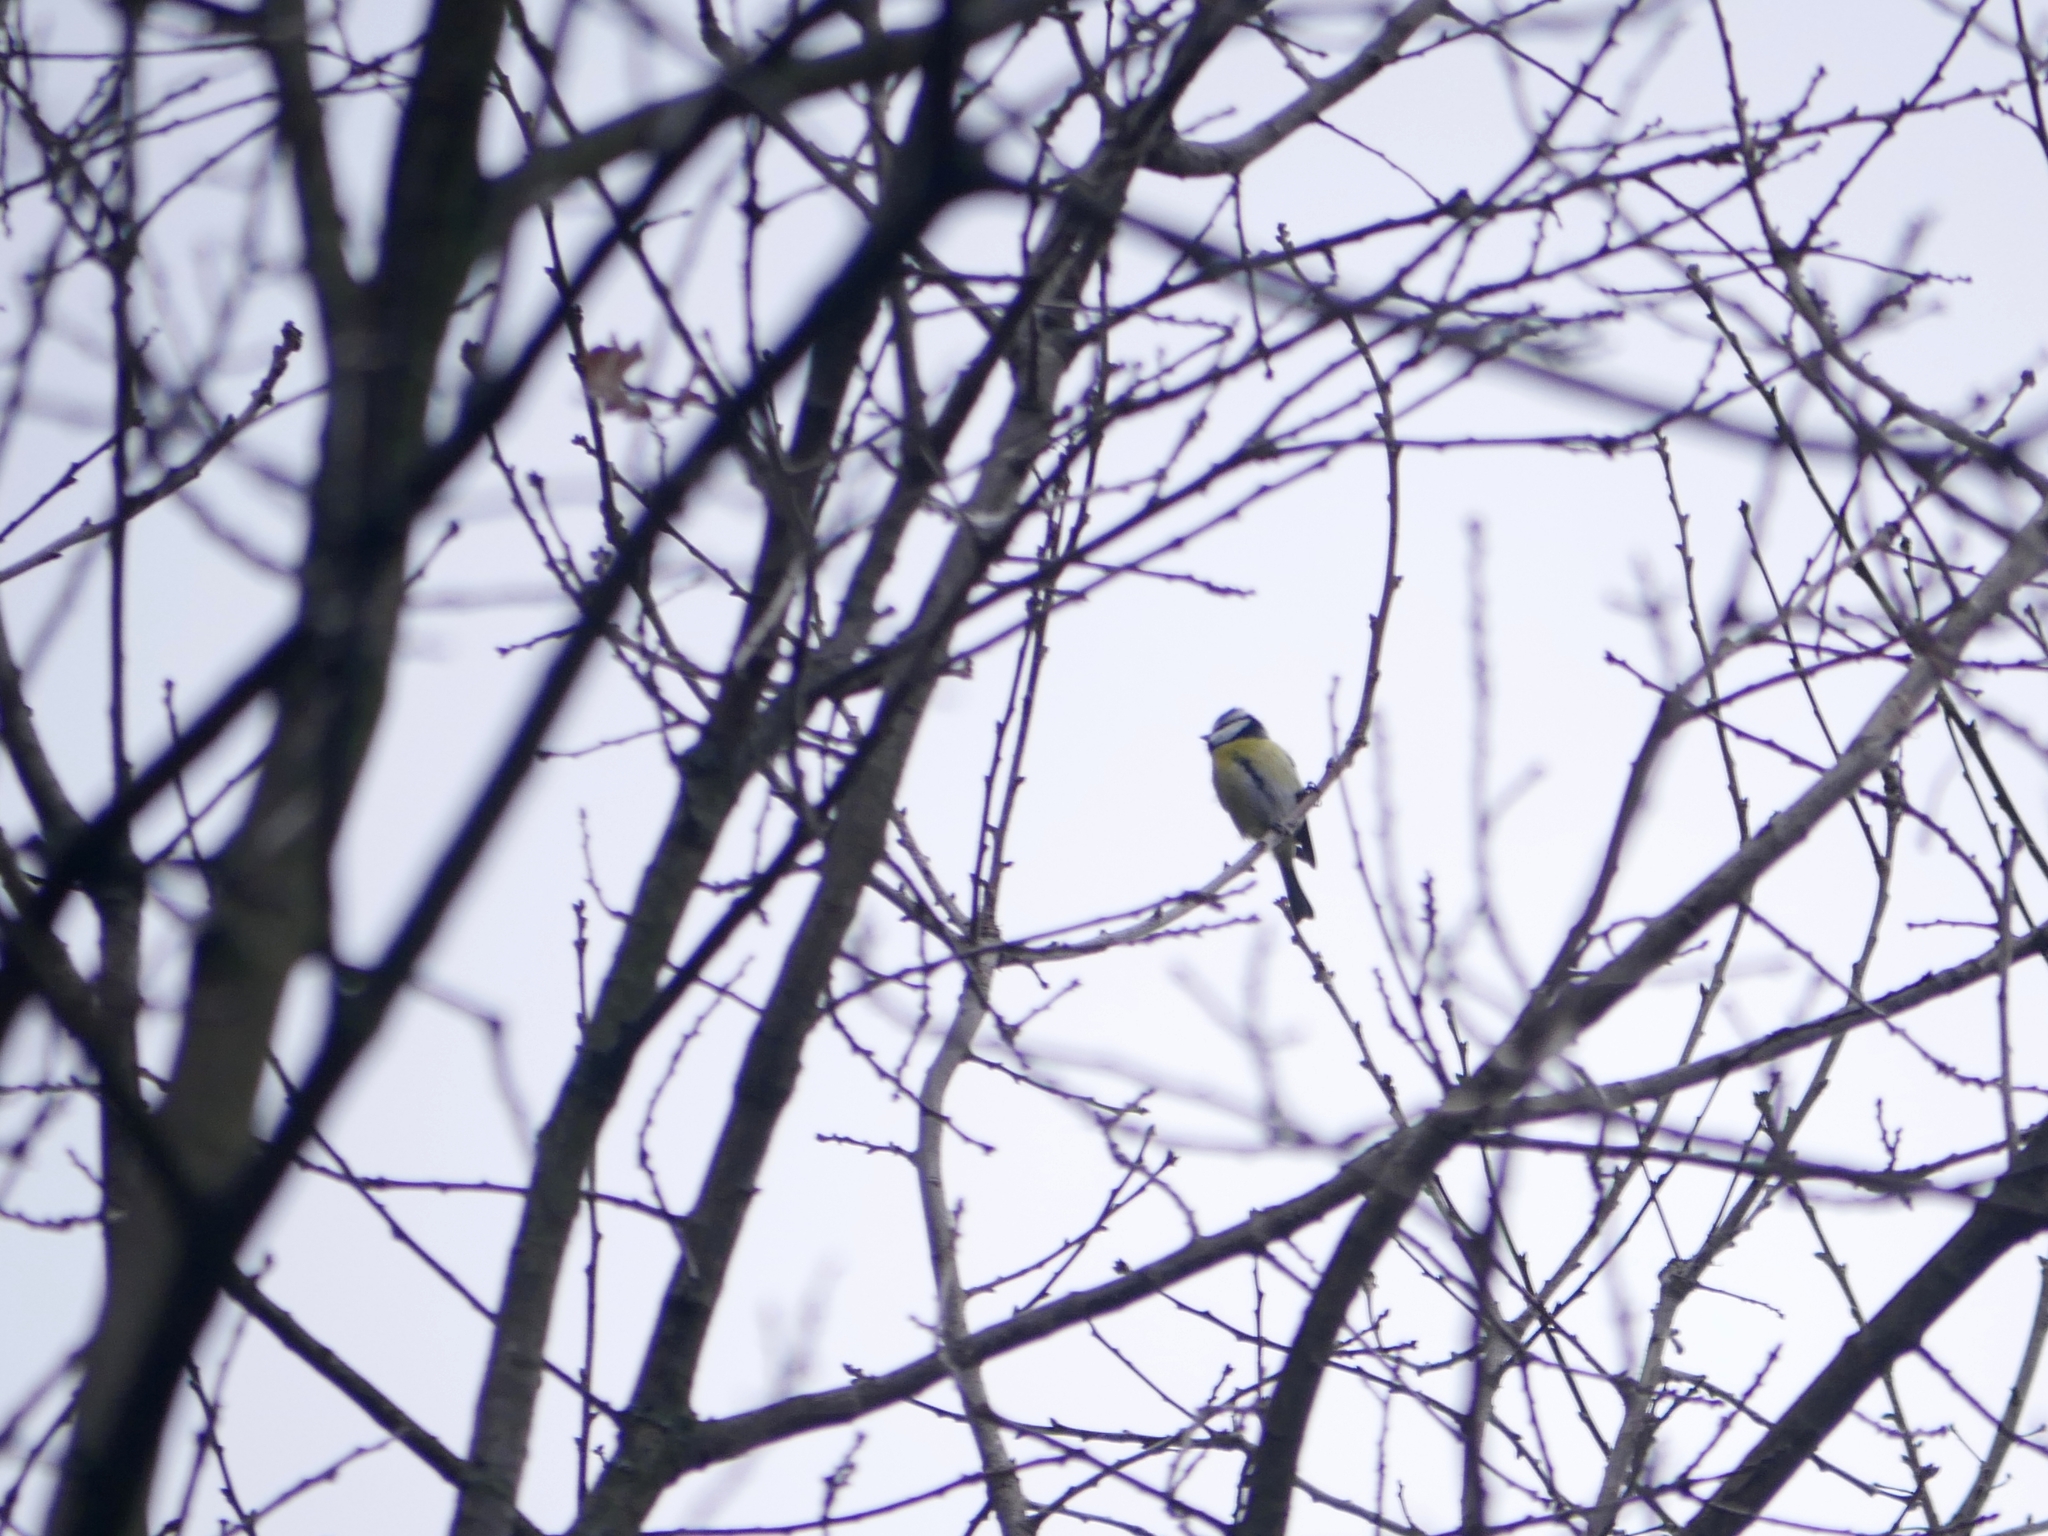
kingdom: Animalia
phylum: Chordata
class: Aves
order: Passeriformes
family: Paridae
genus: Cyanistes
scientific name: Cyanistes caeruleus
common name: Eurasian blue tit
